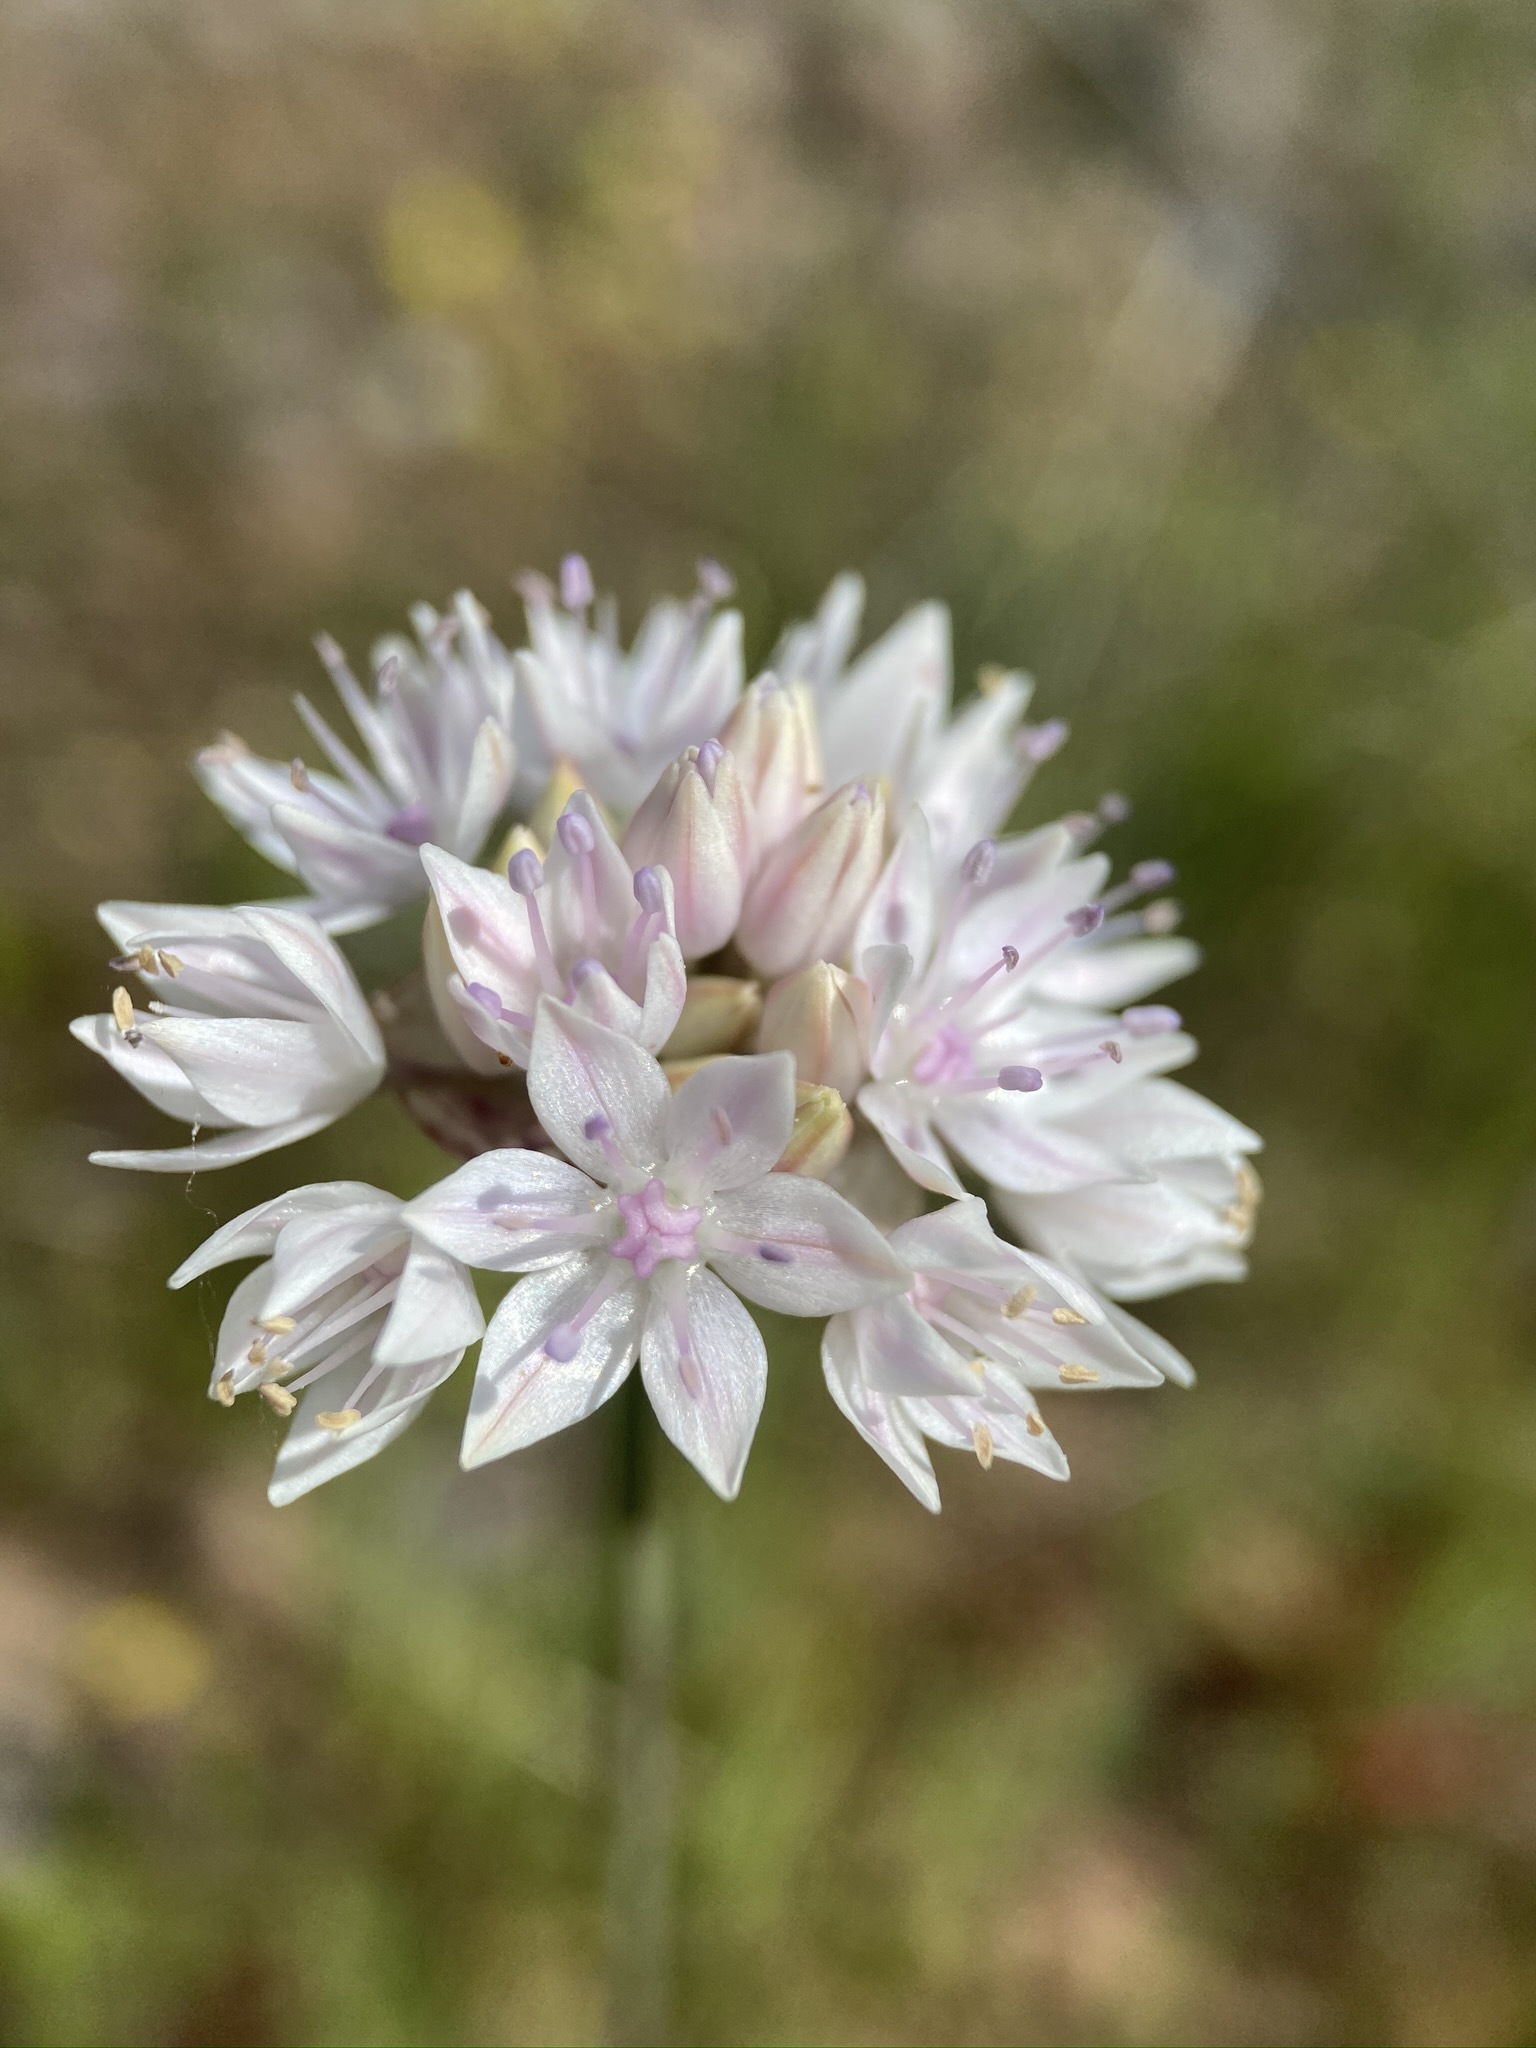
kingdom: Plantae
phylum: Tracheophyta
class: Liliopsida
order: Asparagales
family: Amaryllidaceae
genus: Allium
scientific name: Allium amplectens
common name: Narrow-leaved onion
